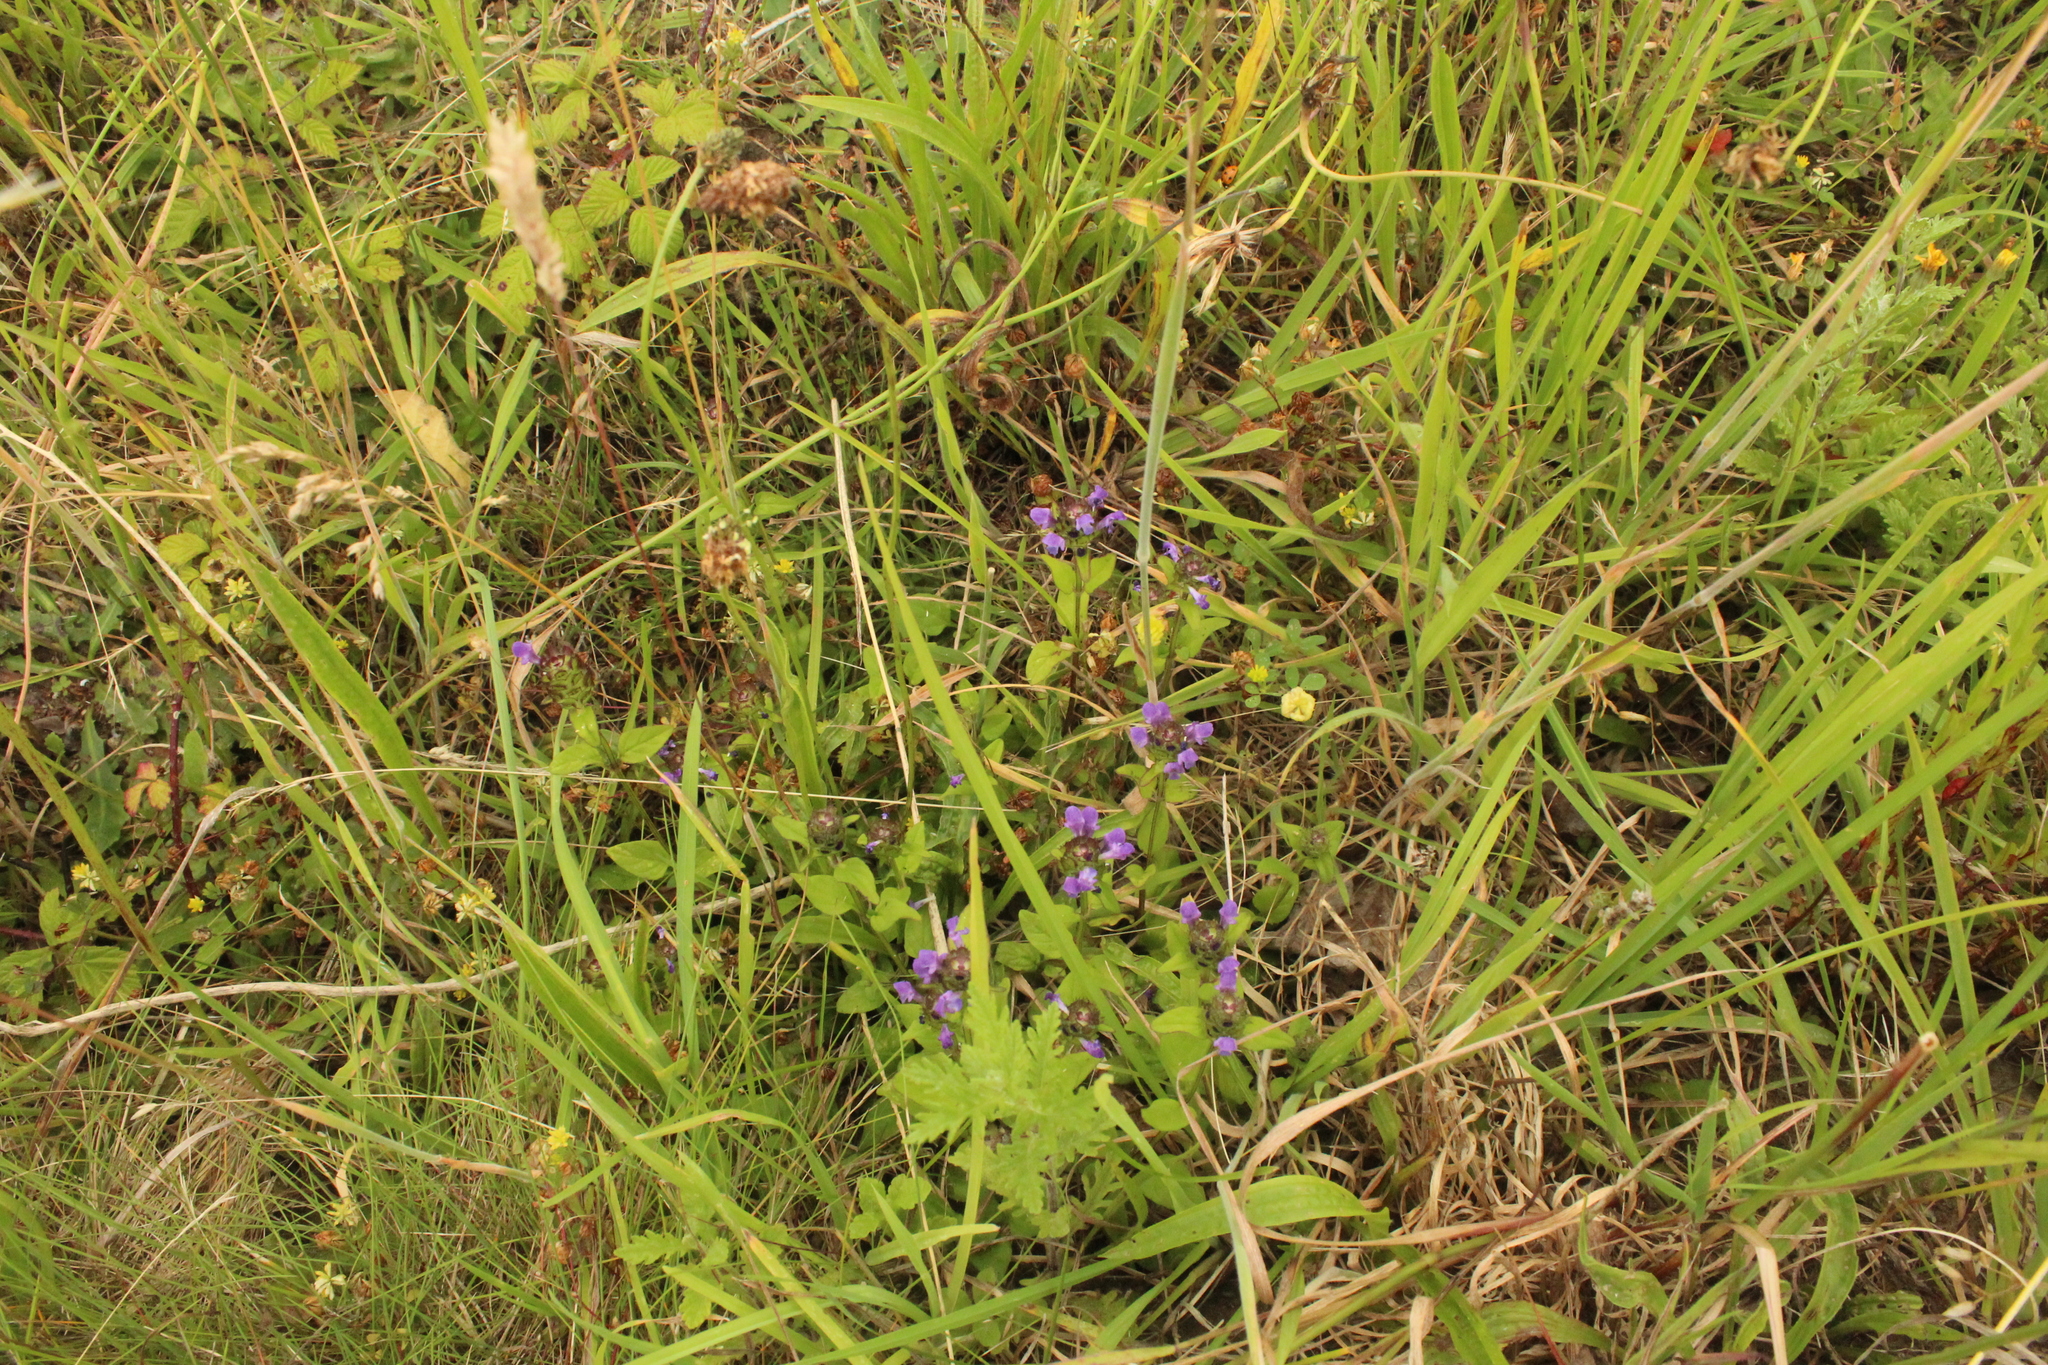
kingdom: Plantae
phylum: Tracheophyta
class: Magnoliopsida
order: Lamiales
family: Lamiaceae
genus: Prunella
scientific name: Prunella vulgaris
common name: Heal-all
